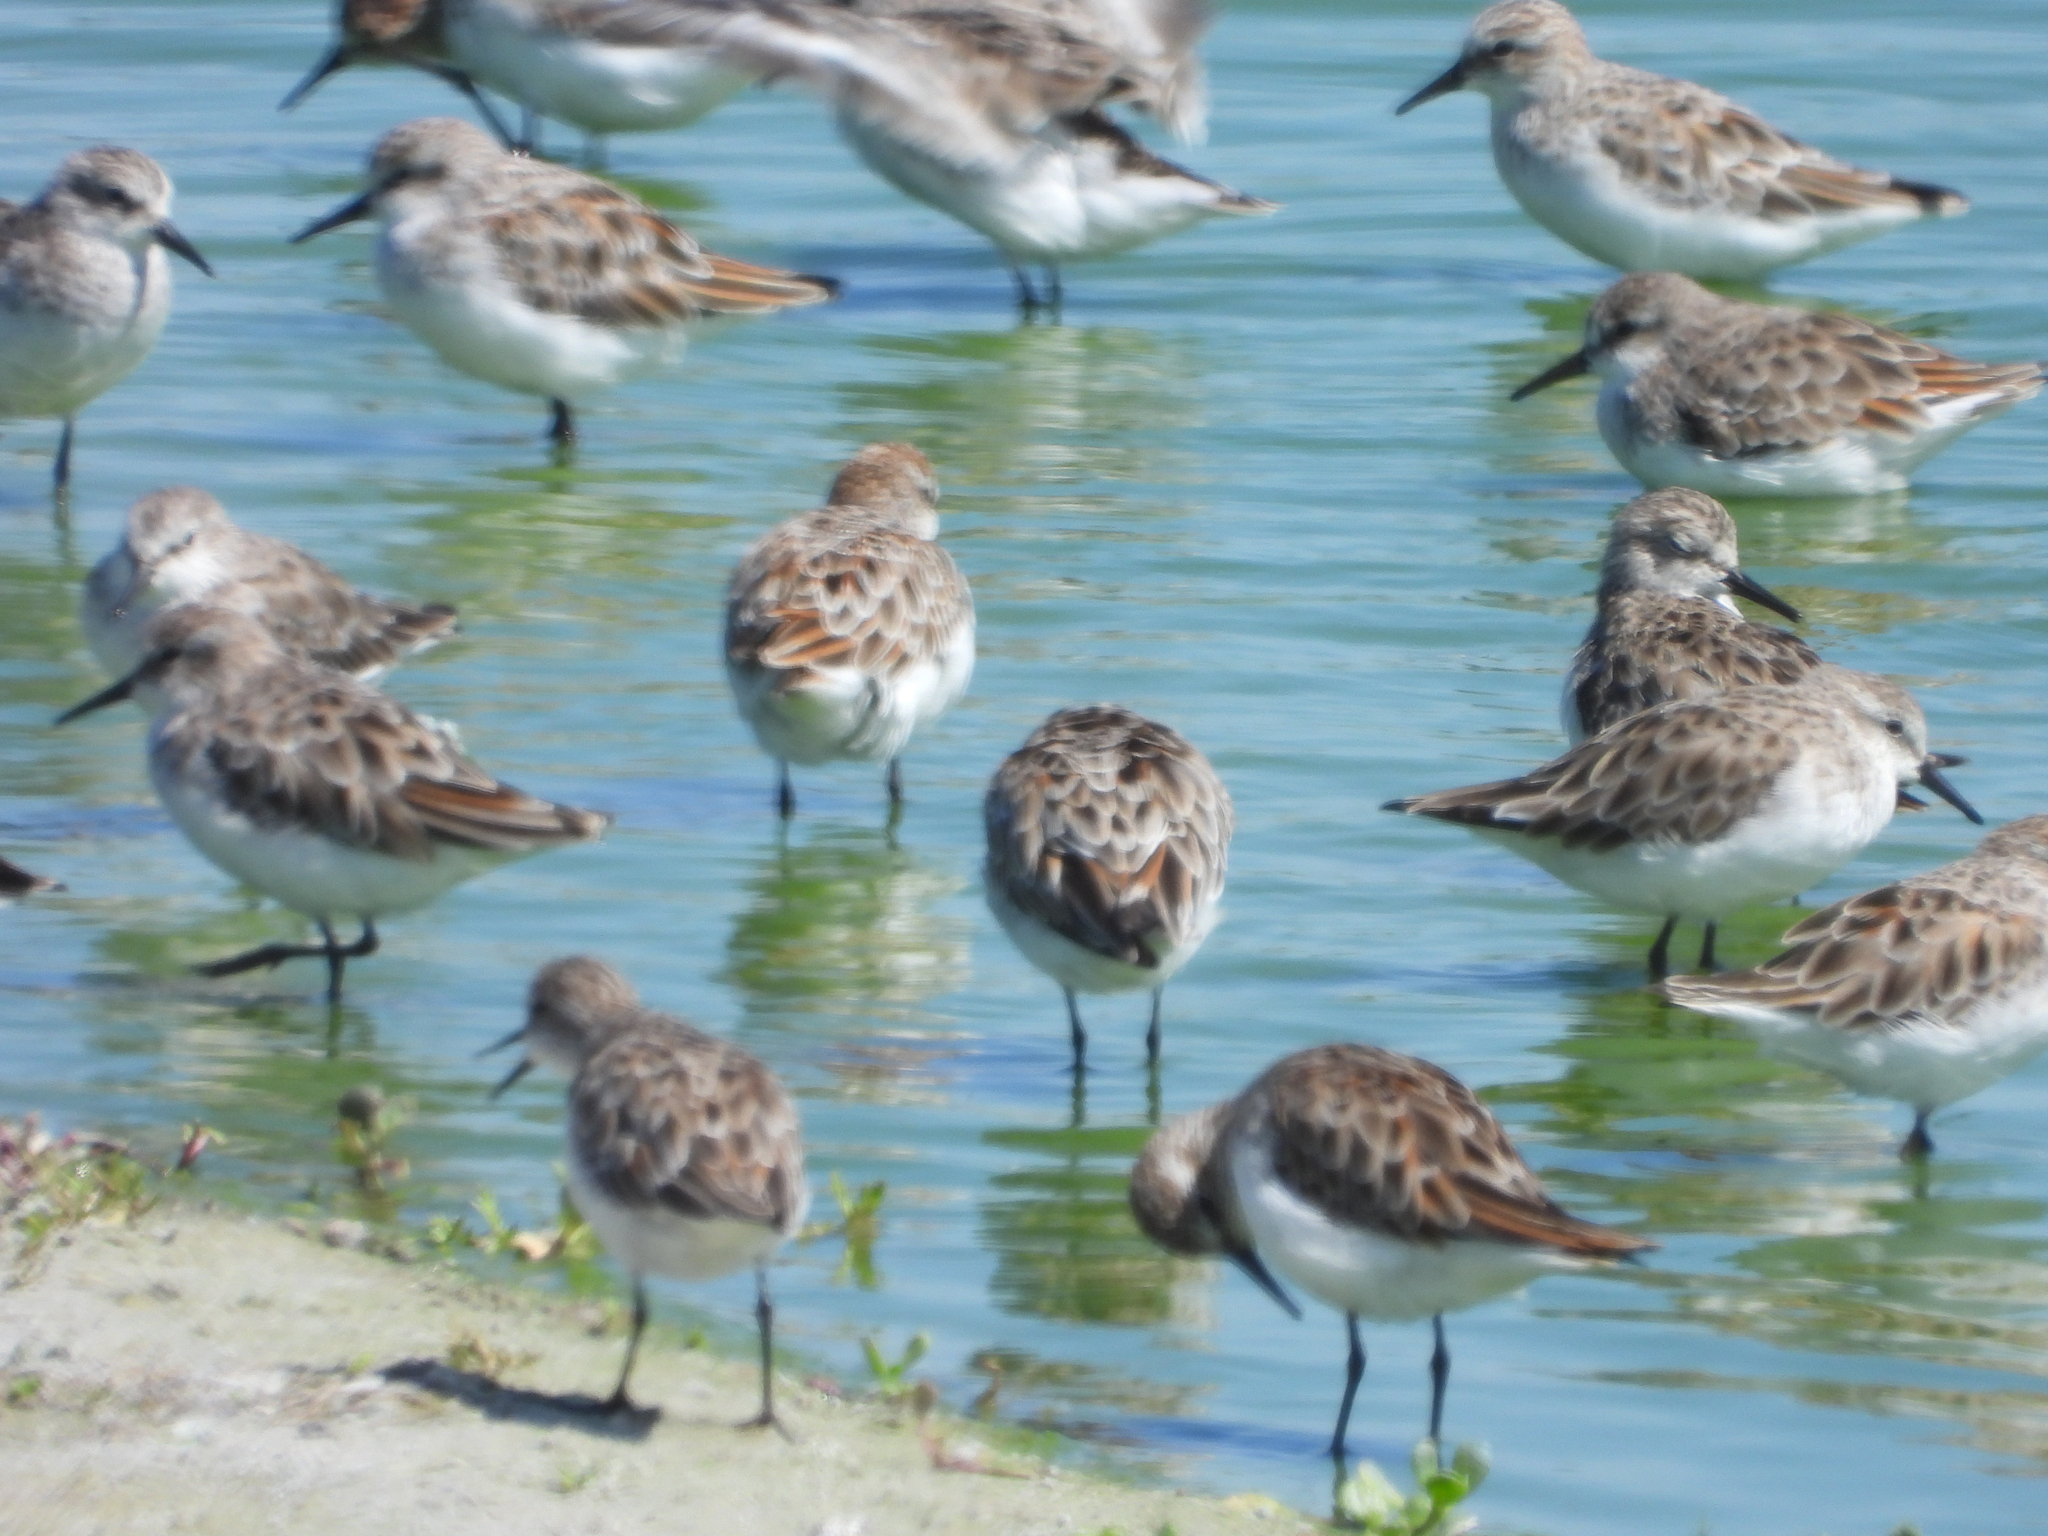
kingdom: Animalia
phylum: Chordata
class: Aves
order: Charadriiformes
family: Scolopacidae
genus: Calidris
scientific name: Calidris minuta
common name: Little stint
